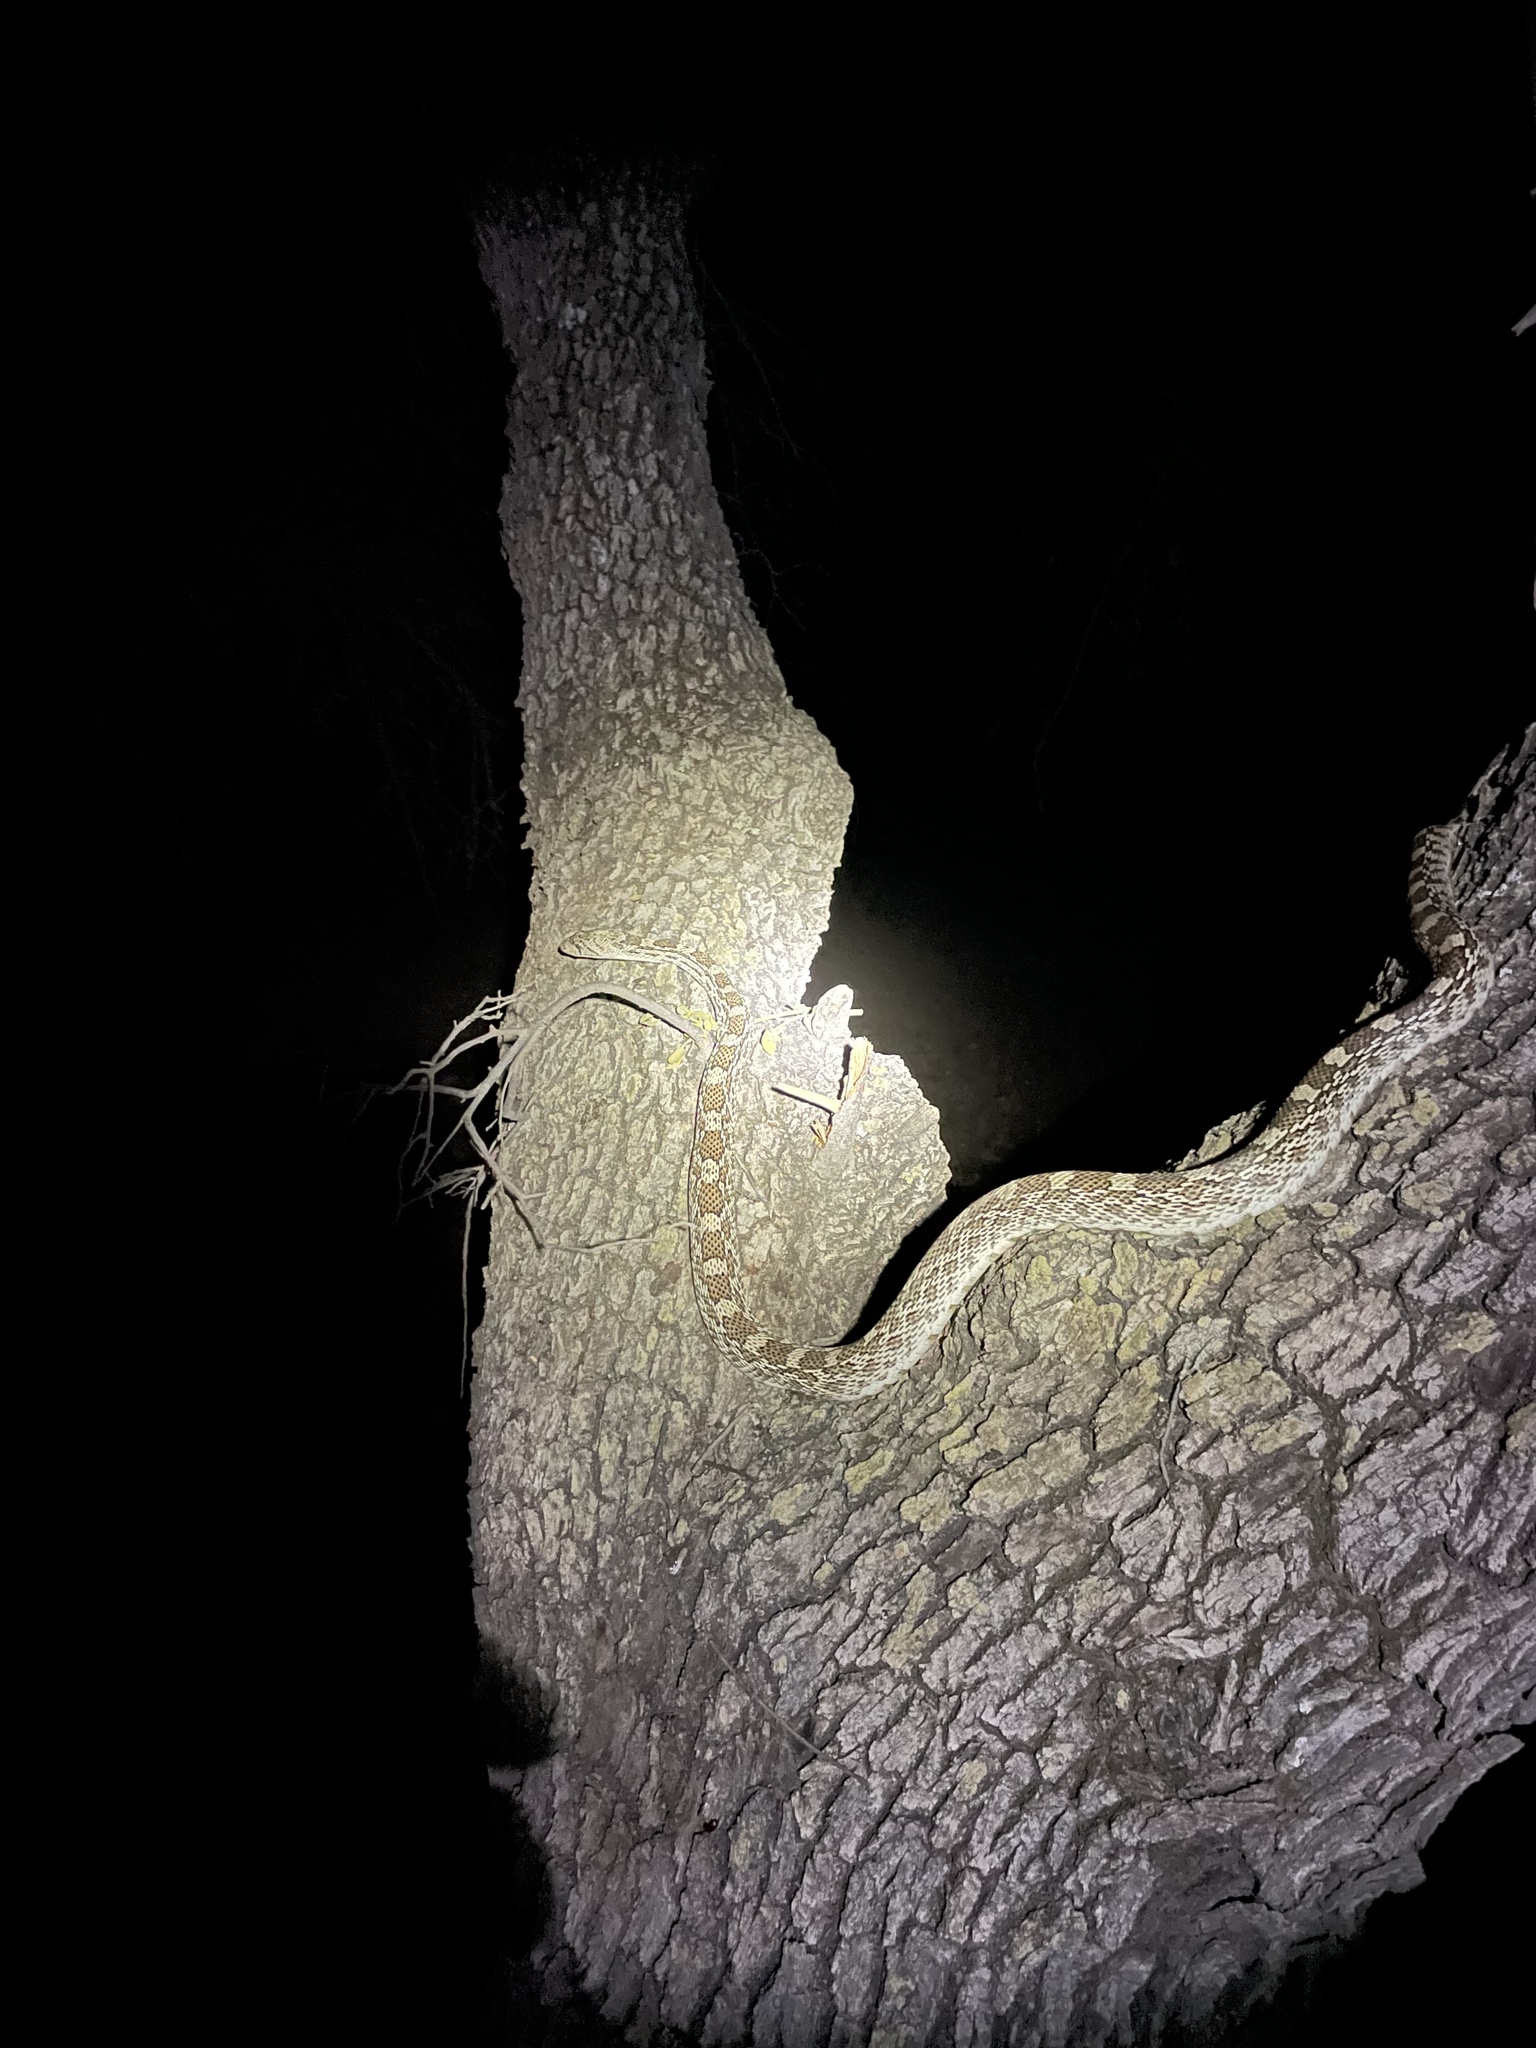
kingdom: Animalia
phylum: Chordata
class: Squamata
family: Colubridae
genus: Pituophis
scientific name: Pituophis catenifer
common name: Gopher snake
